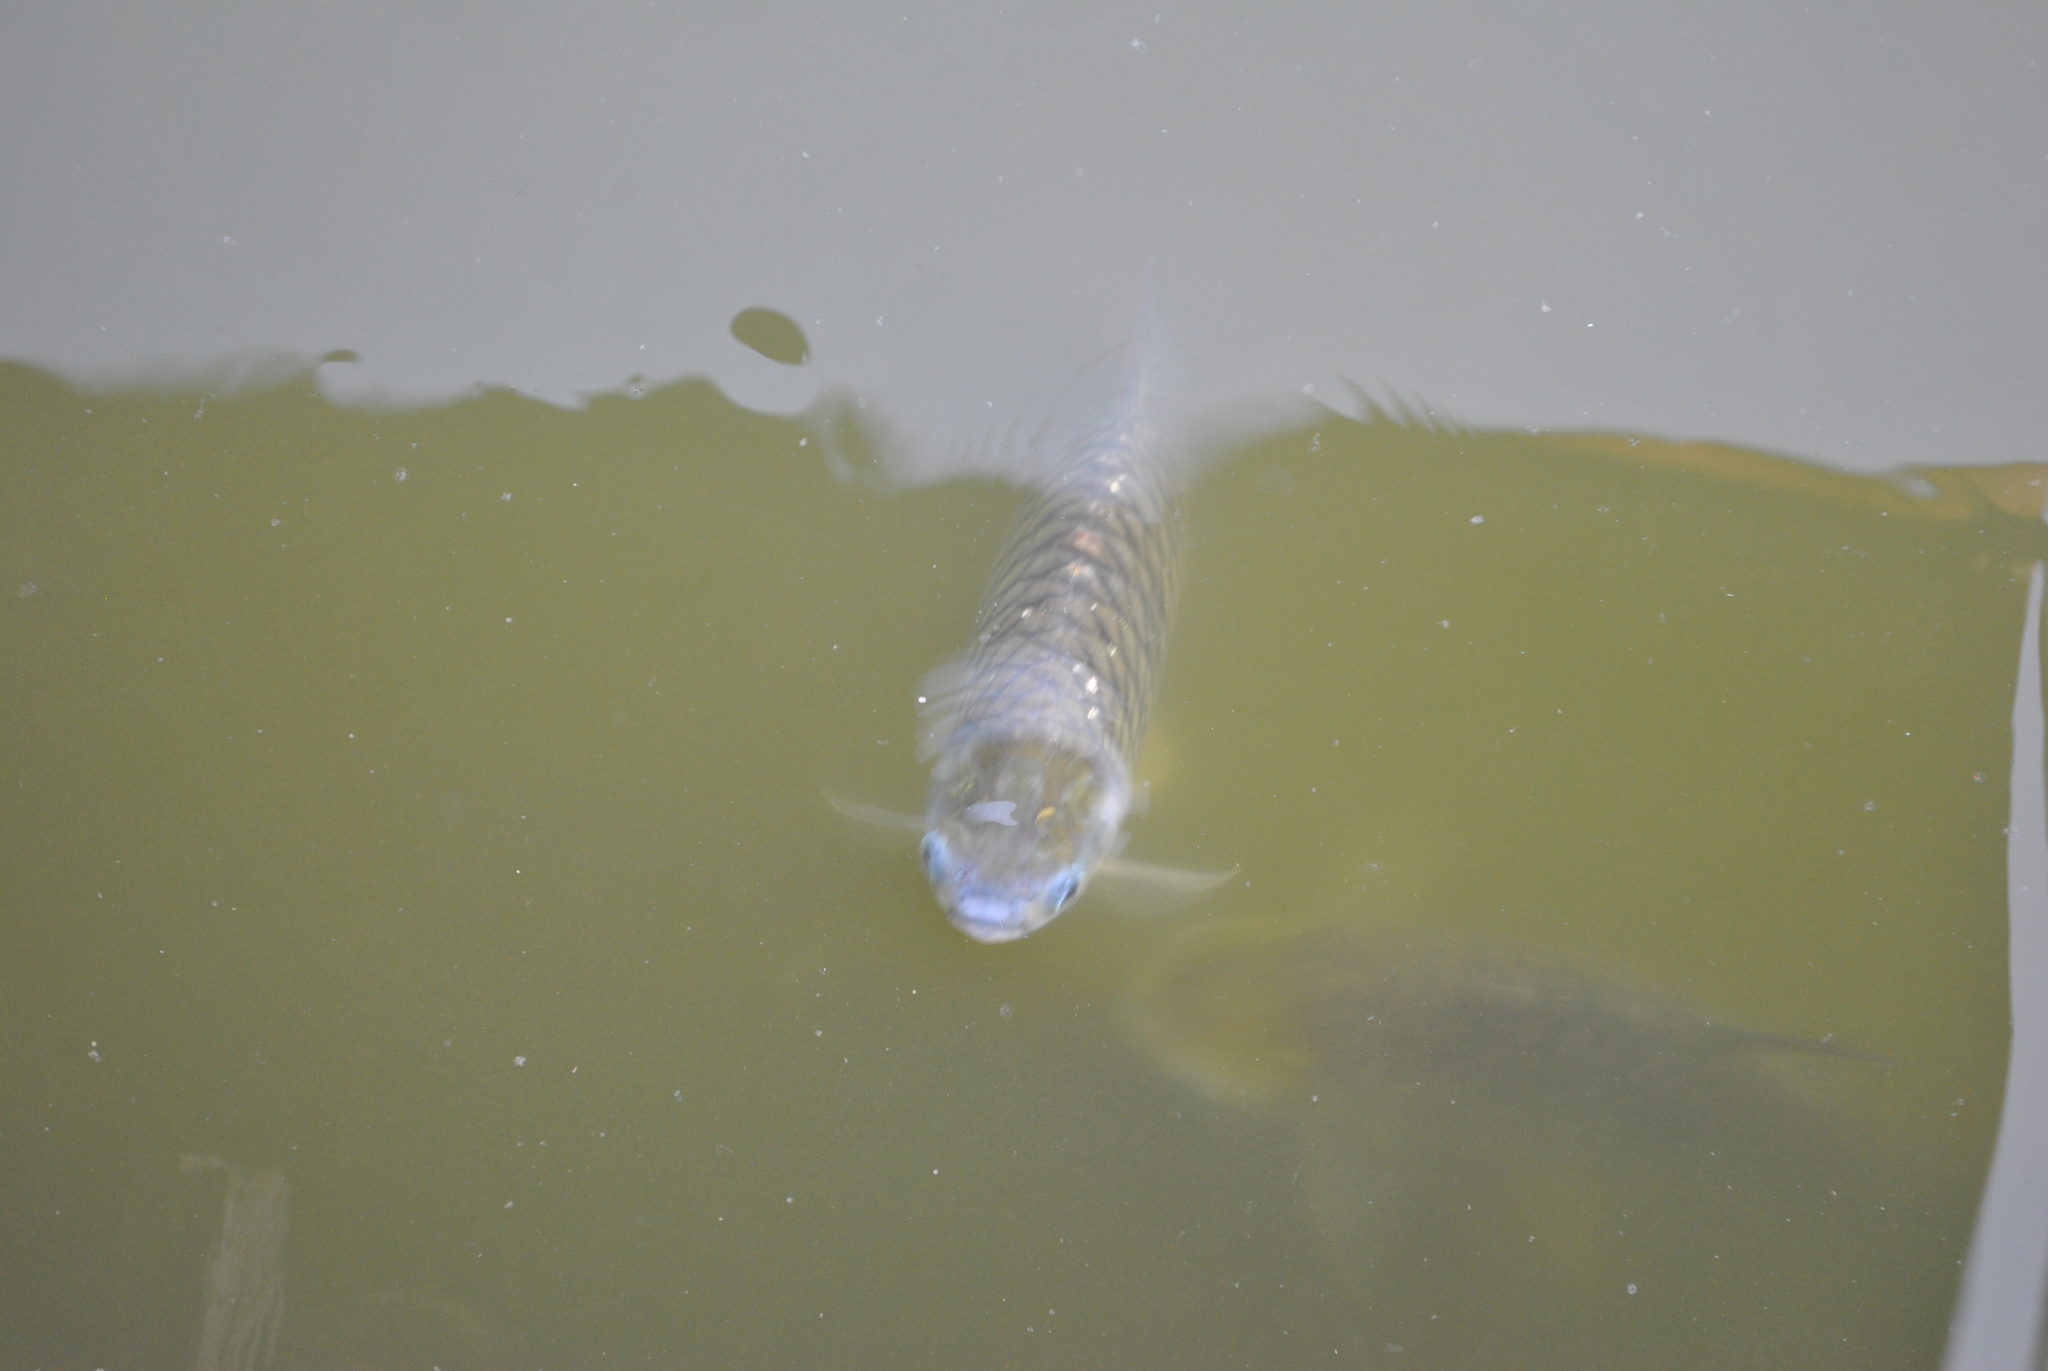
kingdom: Animalia
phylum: Chordata
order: Cypriniformes
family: Cyprinidae
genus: Barbonymus
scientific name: Barbonymus gonionotus
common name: Silver barb
